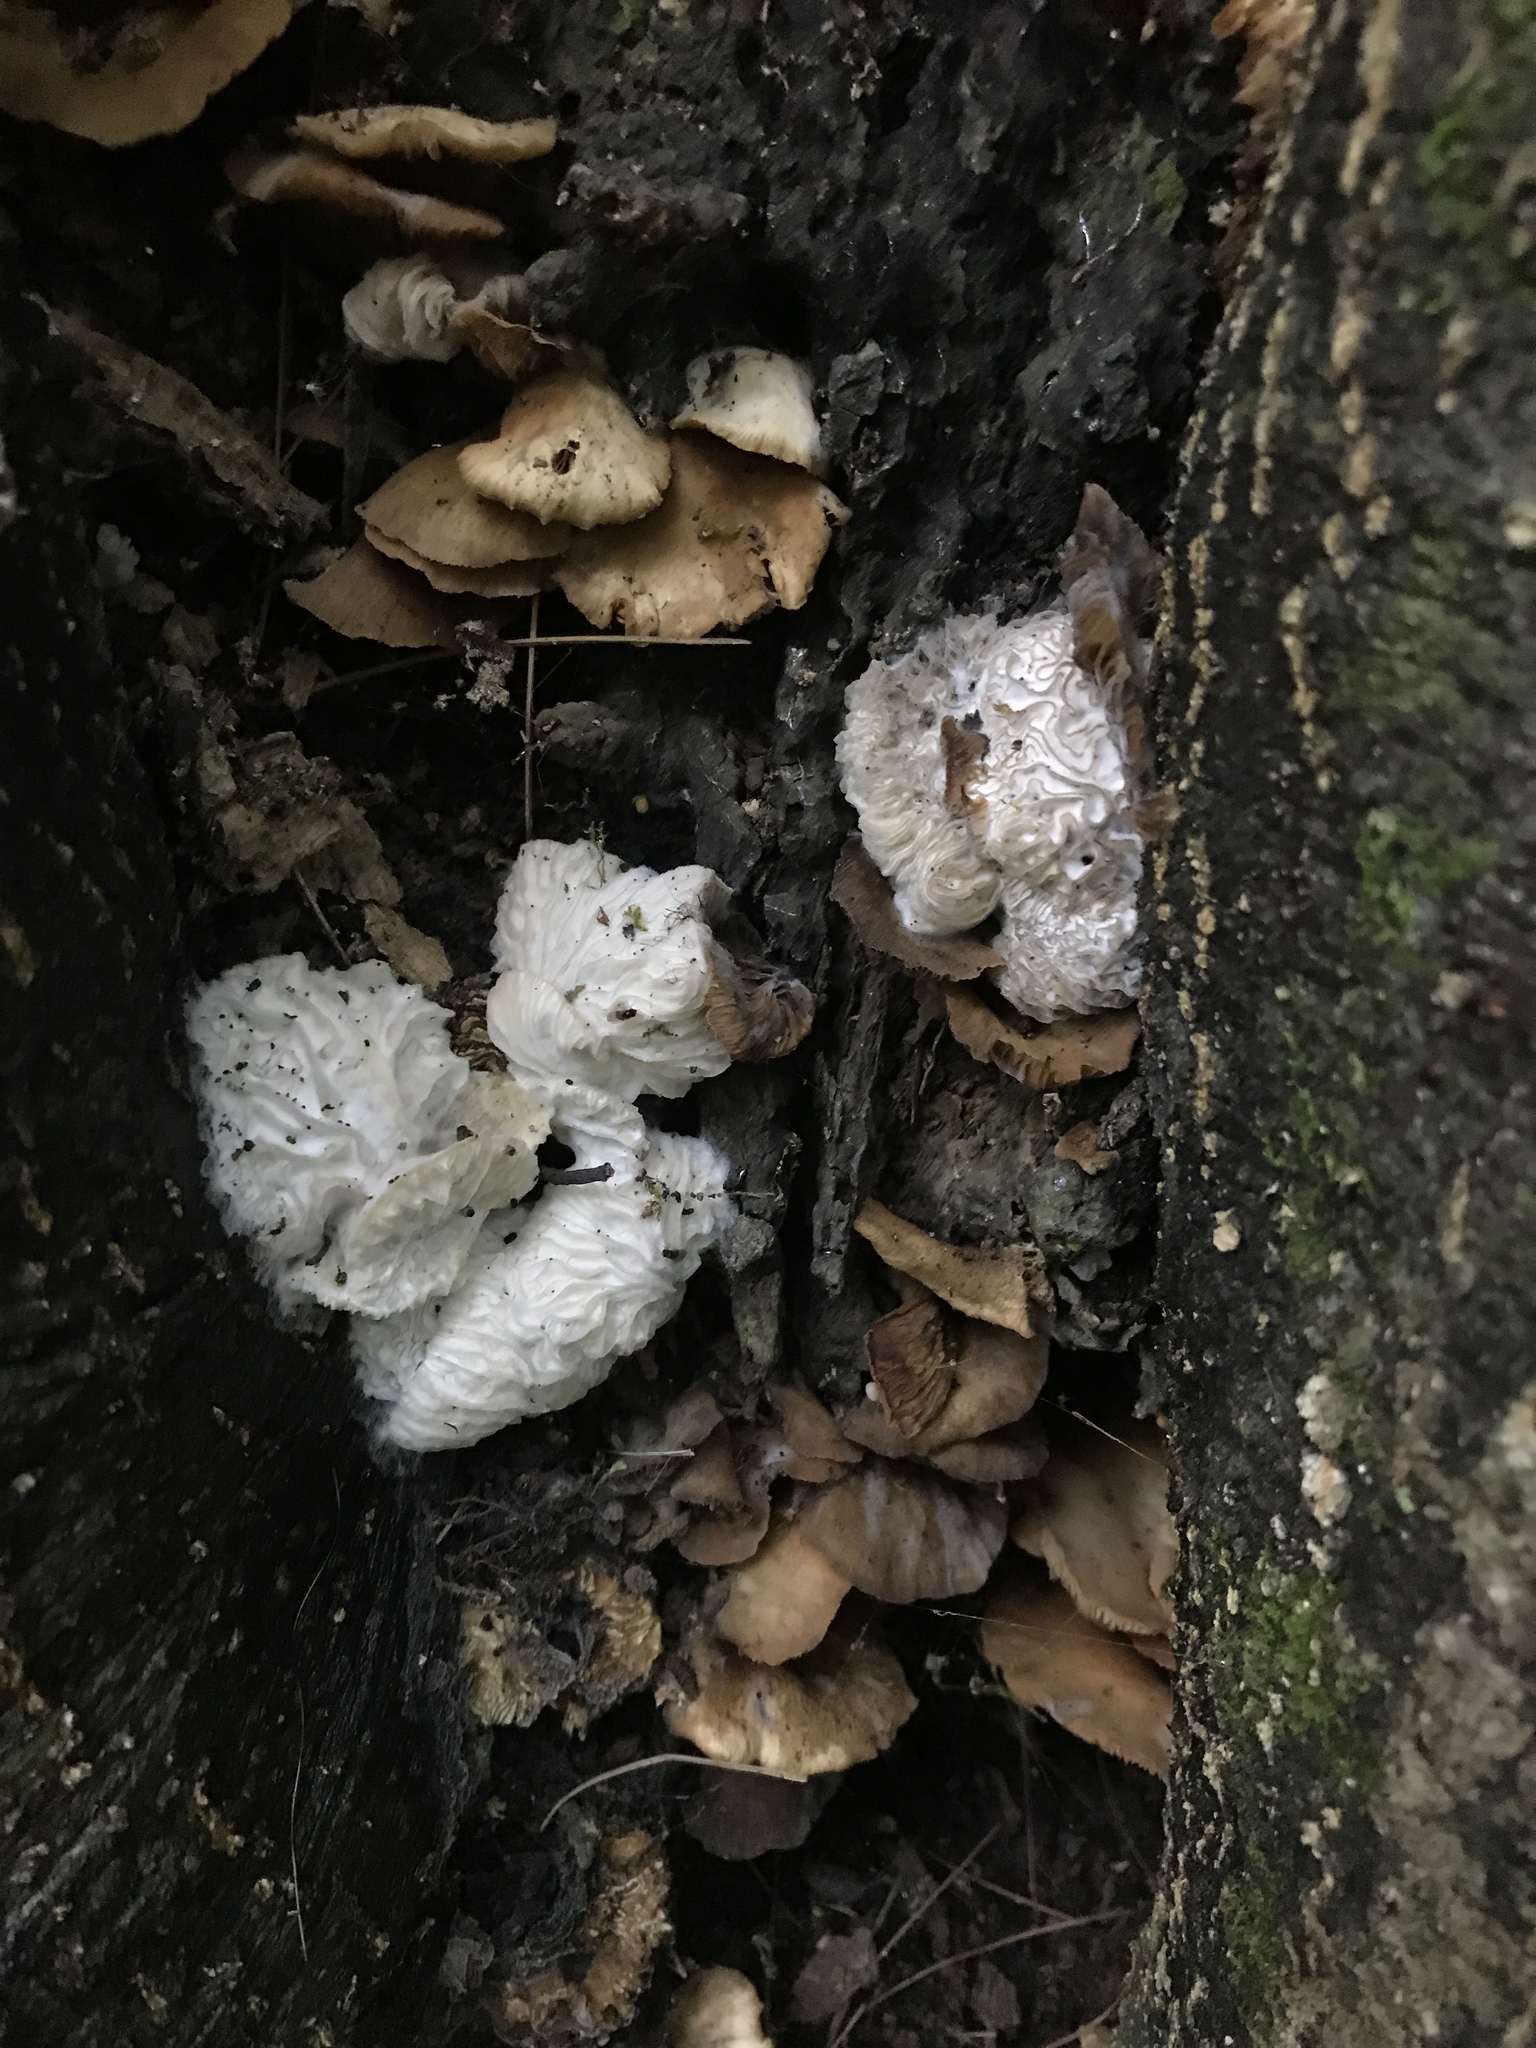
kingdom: Fungi
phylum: Ascomycota
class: Sordariomycetes
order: Hypocreales
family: Bionectriaceae
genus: Nectriopsis
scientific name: Nectriopsis tremellicola
